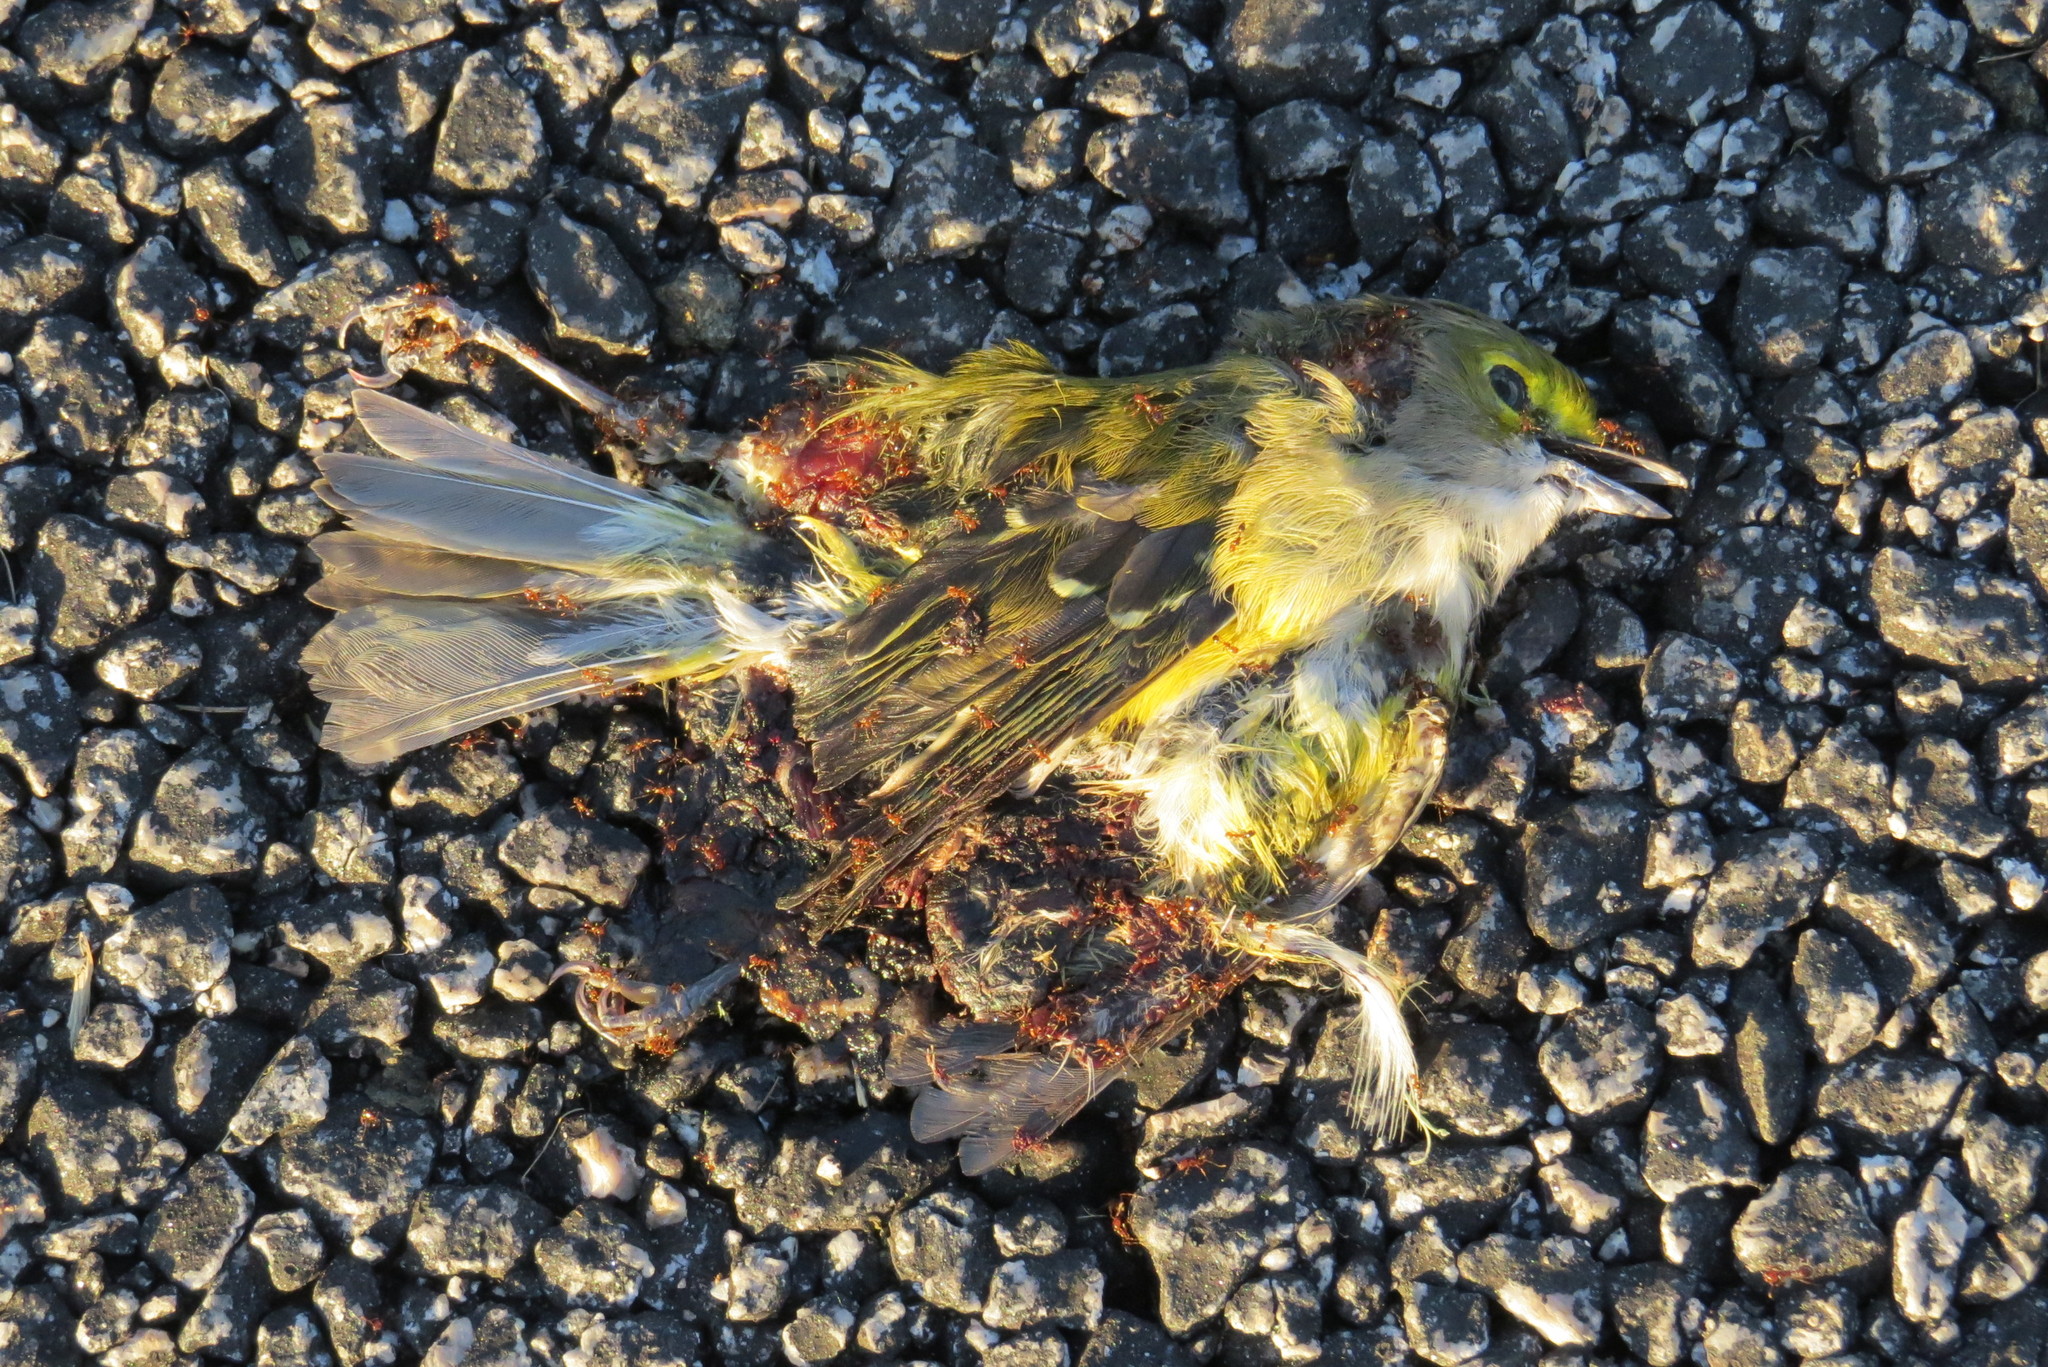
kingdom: Animalia
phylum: Chordata
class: Aves
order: Passeriformes
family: Vireonidae
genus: Vireo
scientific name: Vireo griseus
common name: White-eyed vireo
